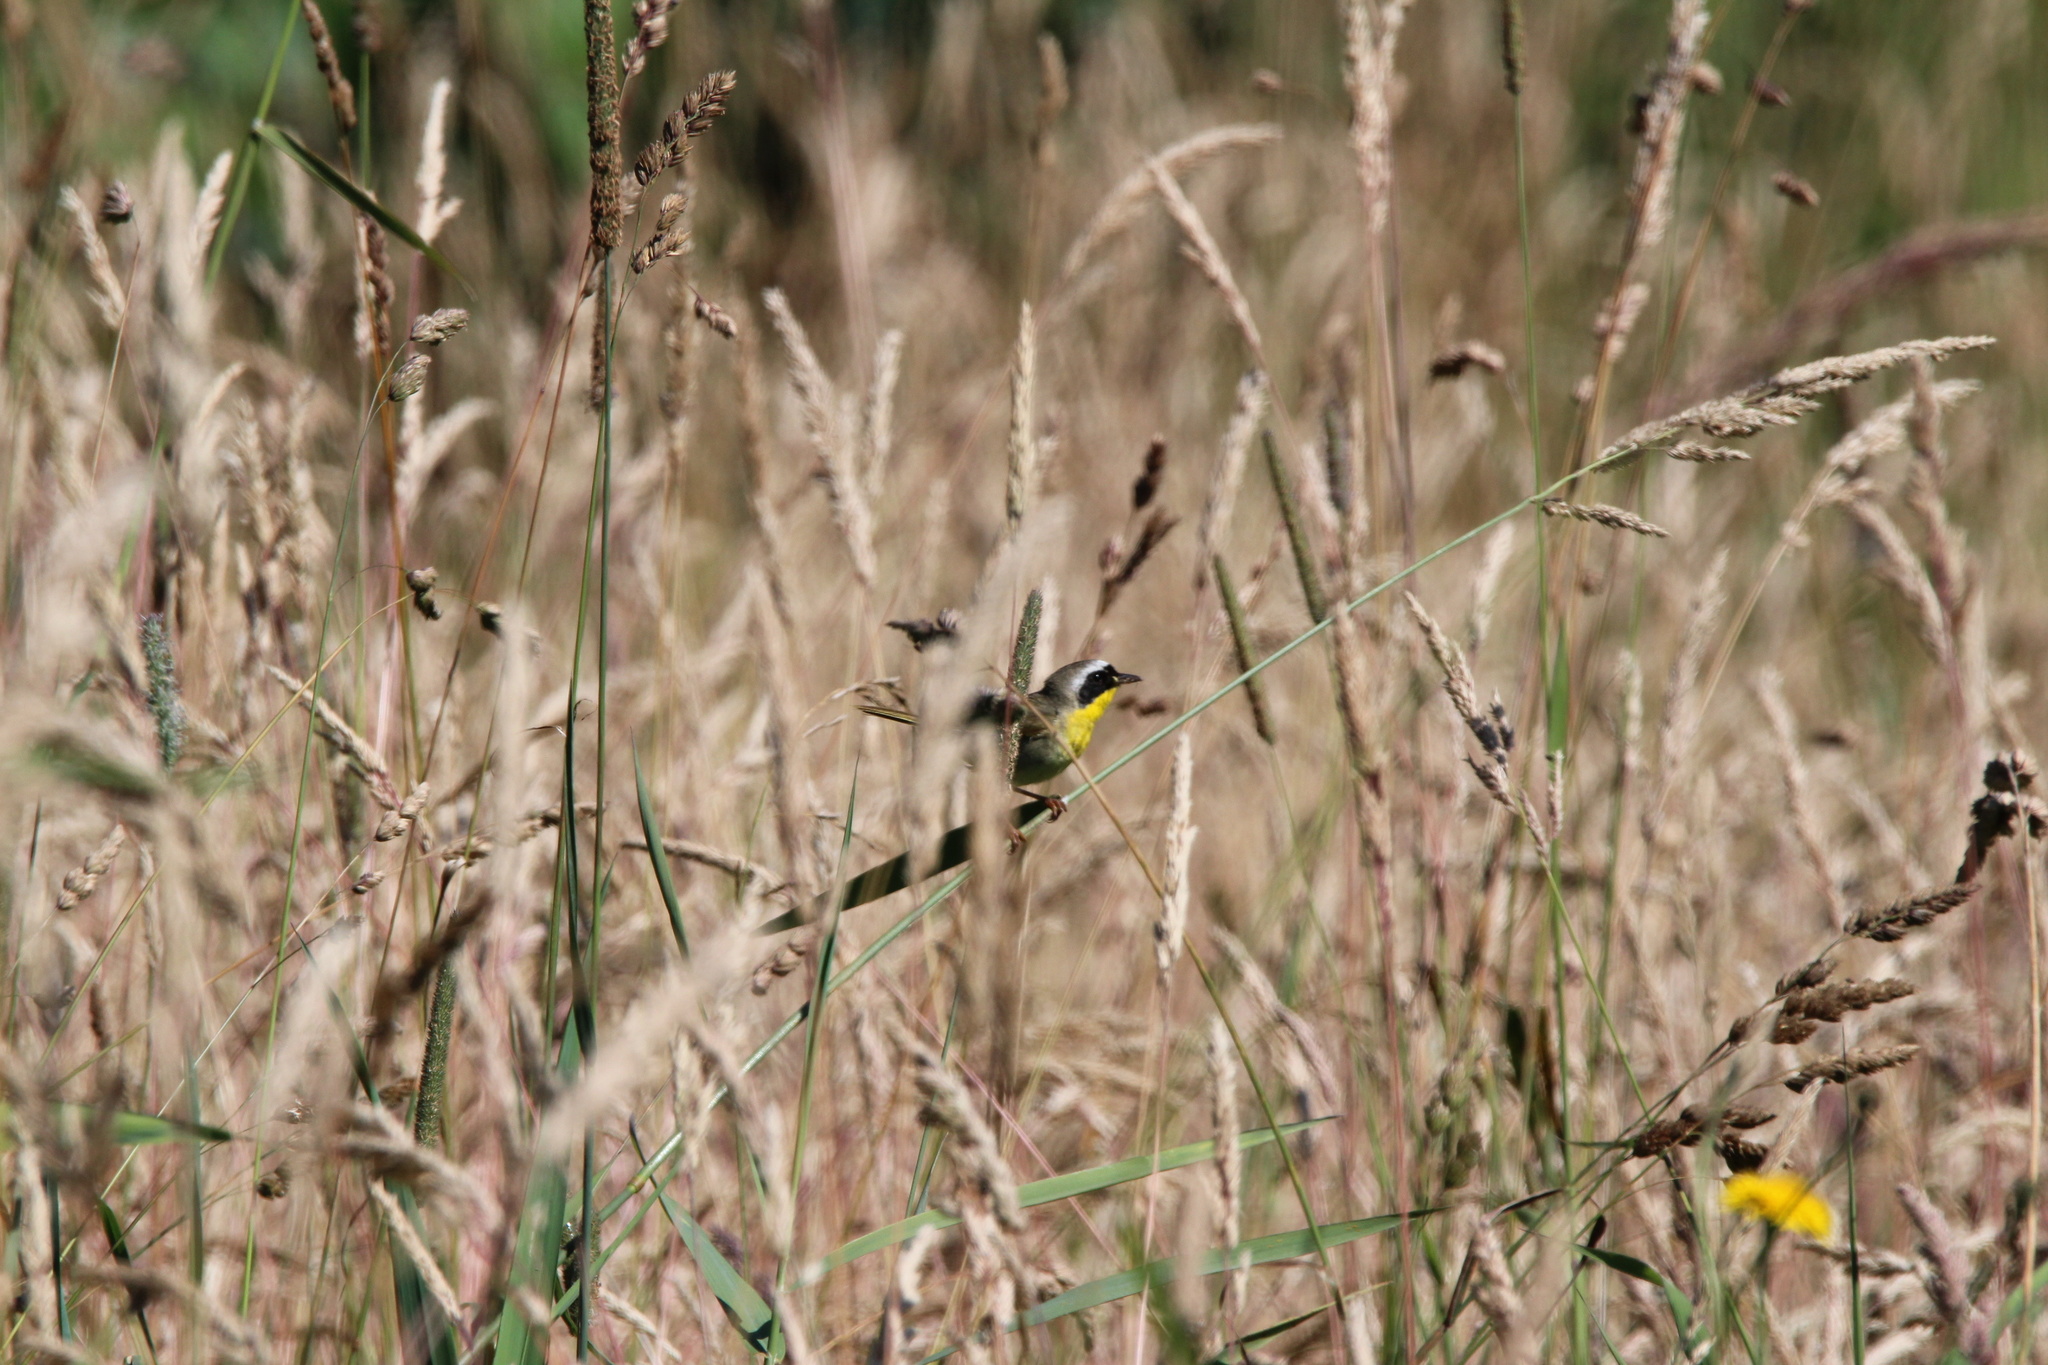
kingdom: Animalia
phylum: Chordata
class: Aves
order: Passeriformes
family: Parulidae
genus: Geothlypis
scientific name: Geothlypis trichas
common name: Common yellowthroat
